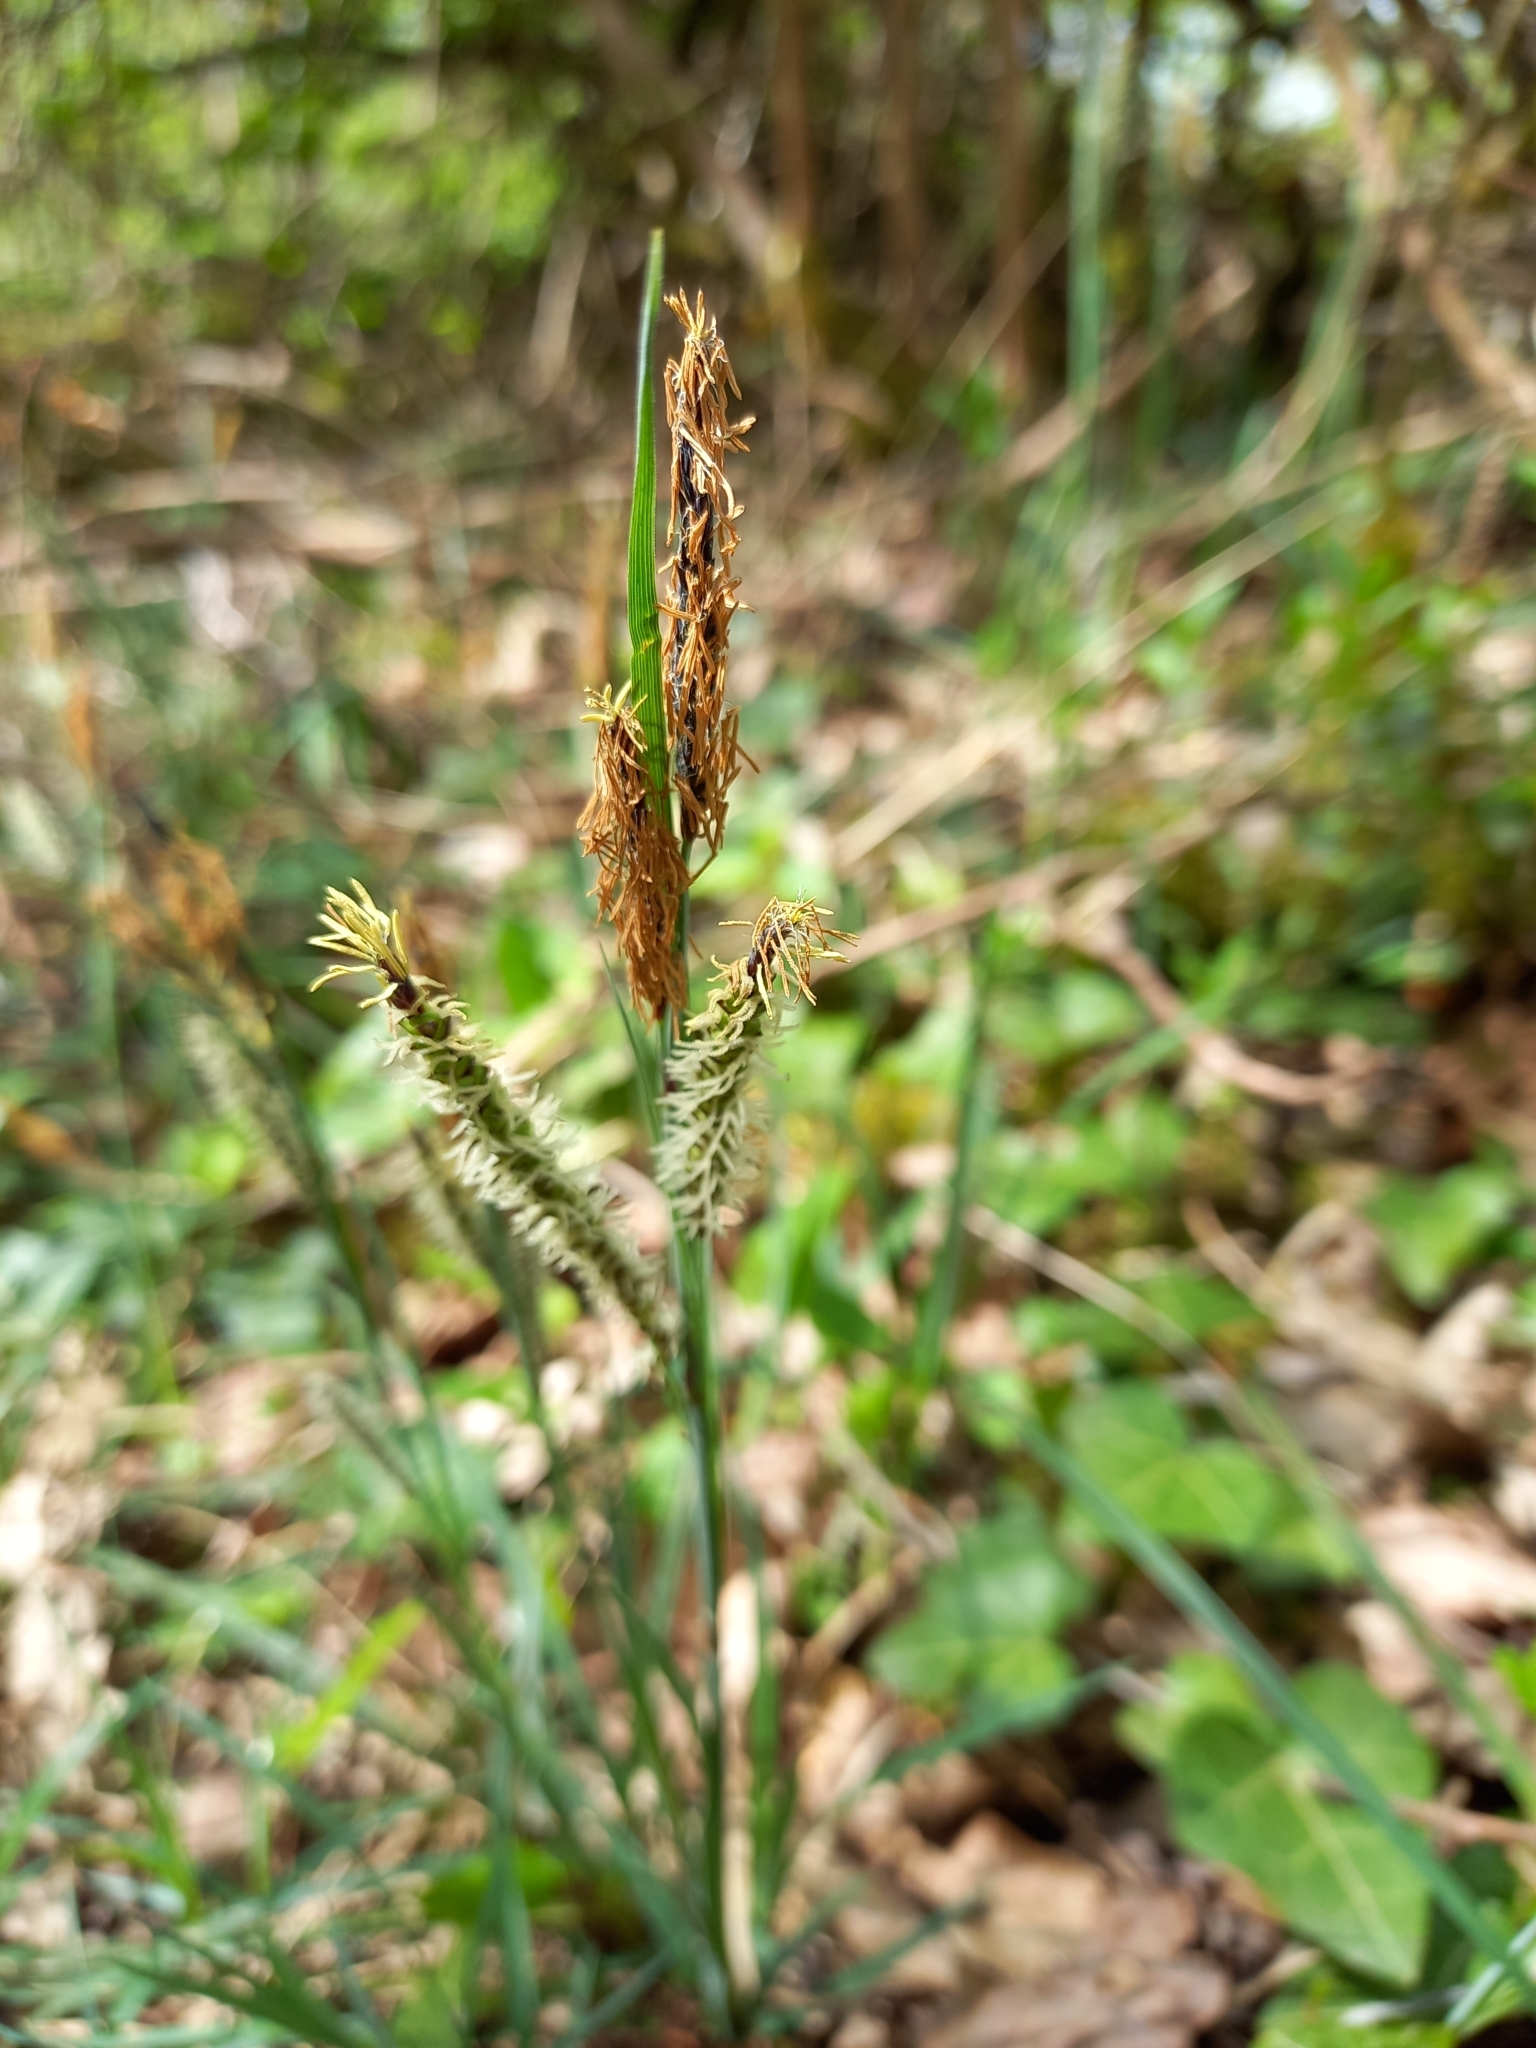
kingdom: Plantae
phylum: Tracheophyta
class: Liliopsida
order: Poales
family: Cyperaceae
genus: Carex
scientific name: Carex flacca
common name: Glaucous sedge
